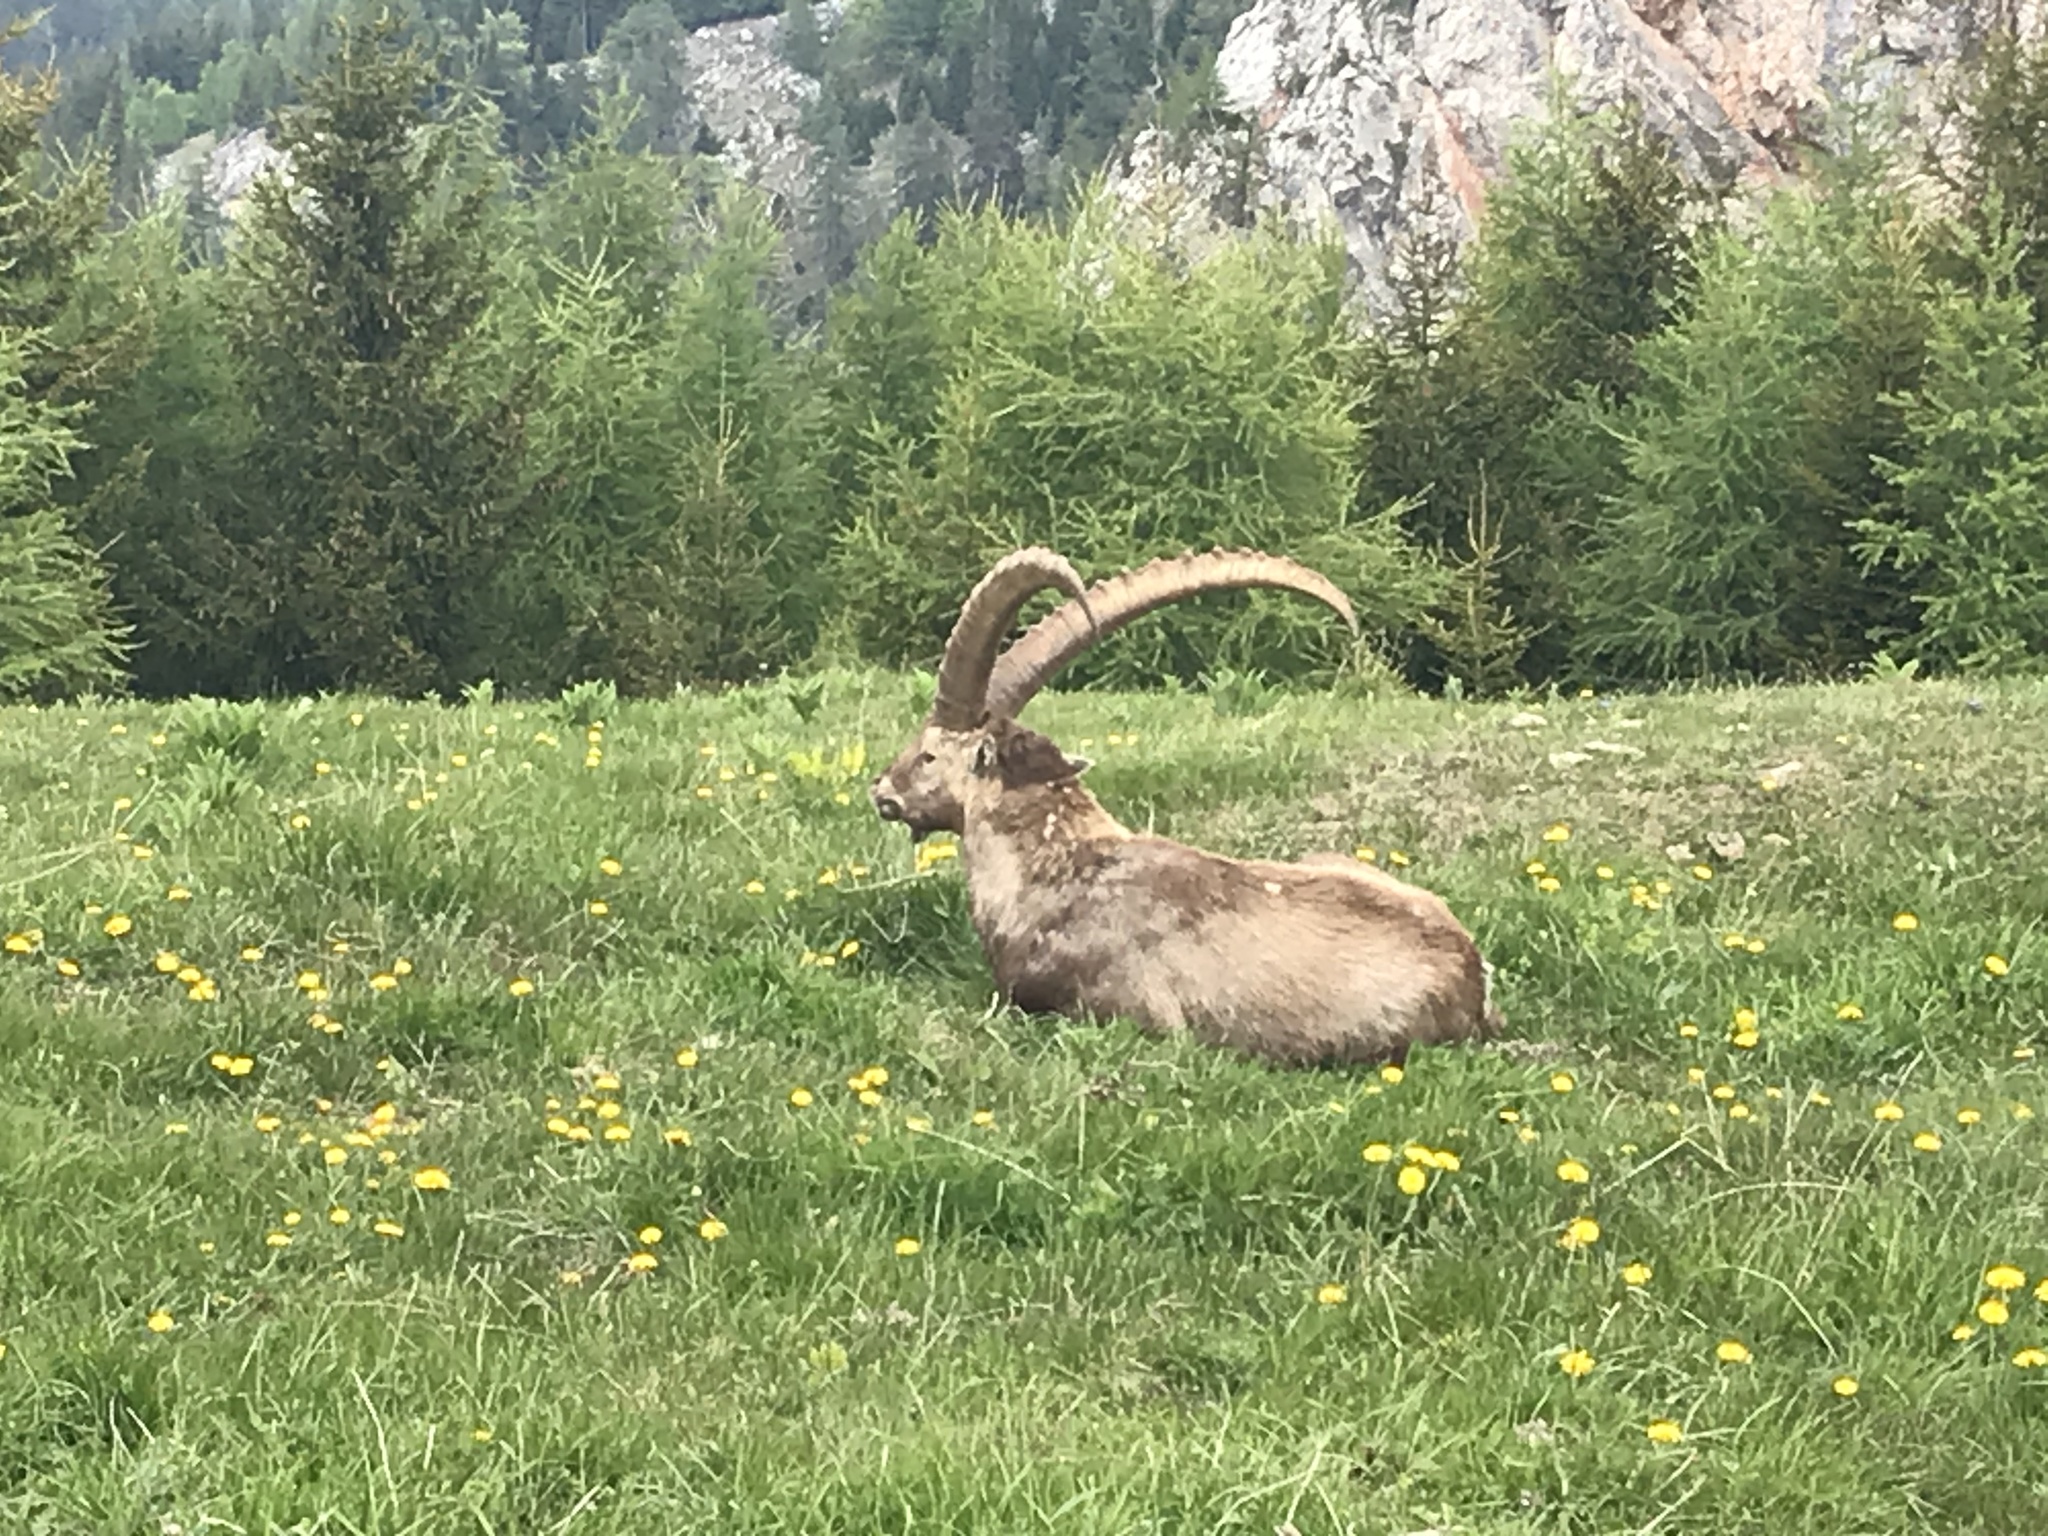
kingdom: Animalia
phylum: Chordata
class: Mammalia
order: Artiodactyla
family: Bovidae
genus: Capra
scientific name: Capra ibex
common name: Alpine ibex
